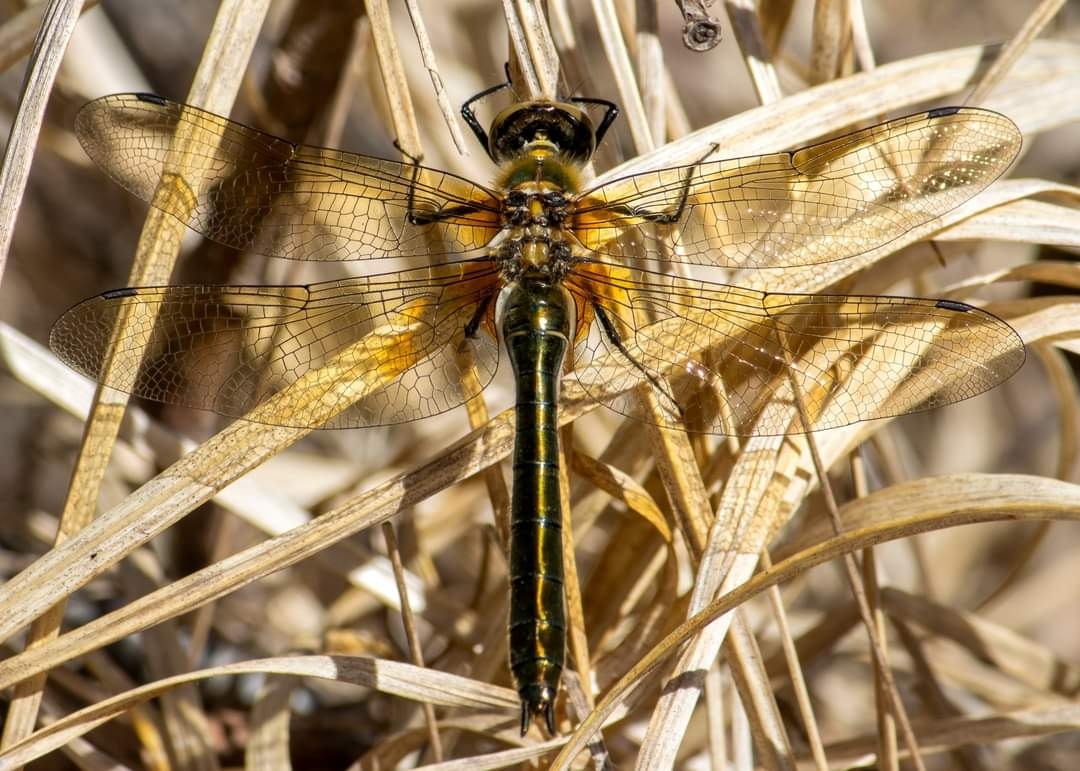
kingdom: Animalia
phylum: Arthropoda
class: Insecta
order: Odonata
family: Corduliidae
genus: Cordulia
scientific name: Cordulia aenea
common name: Downy emerald
